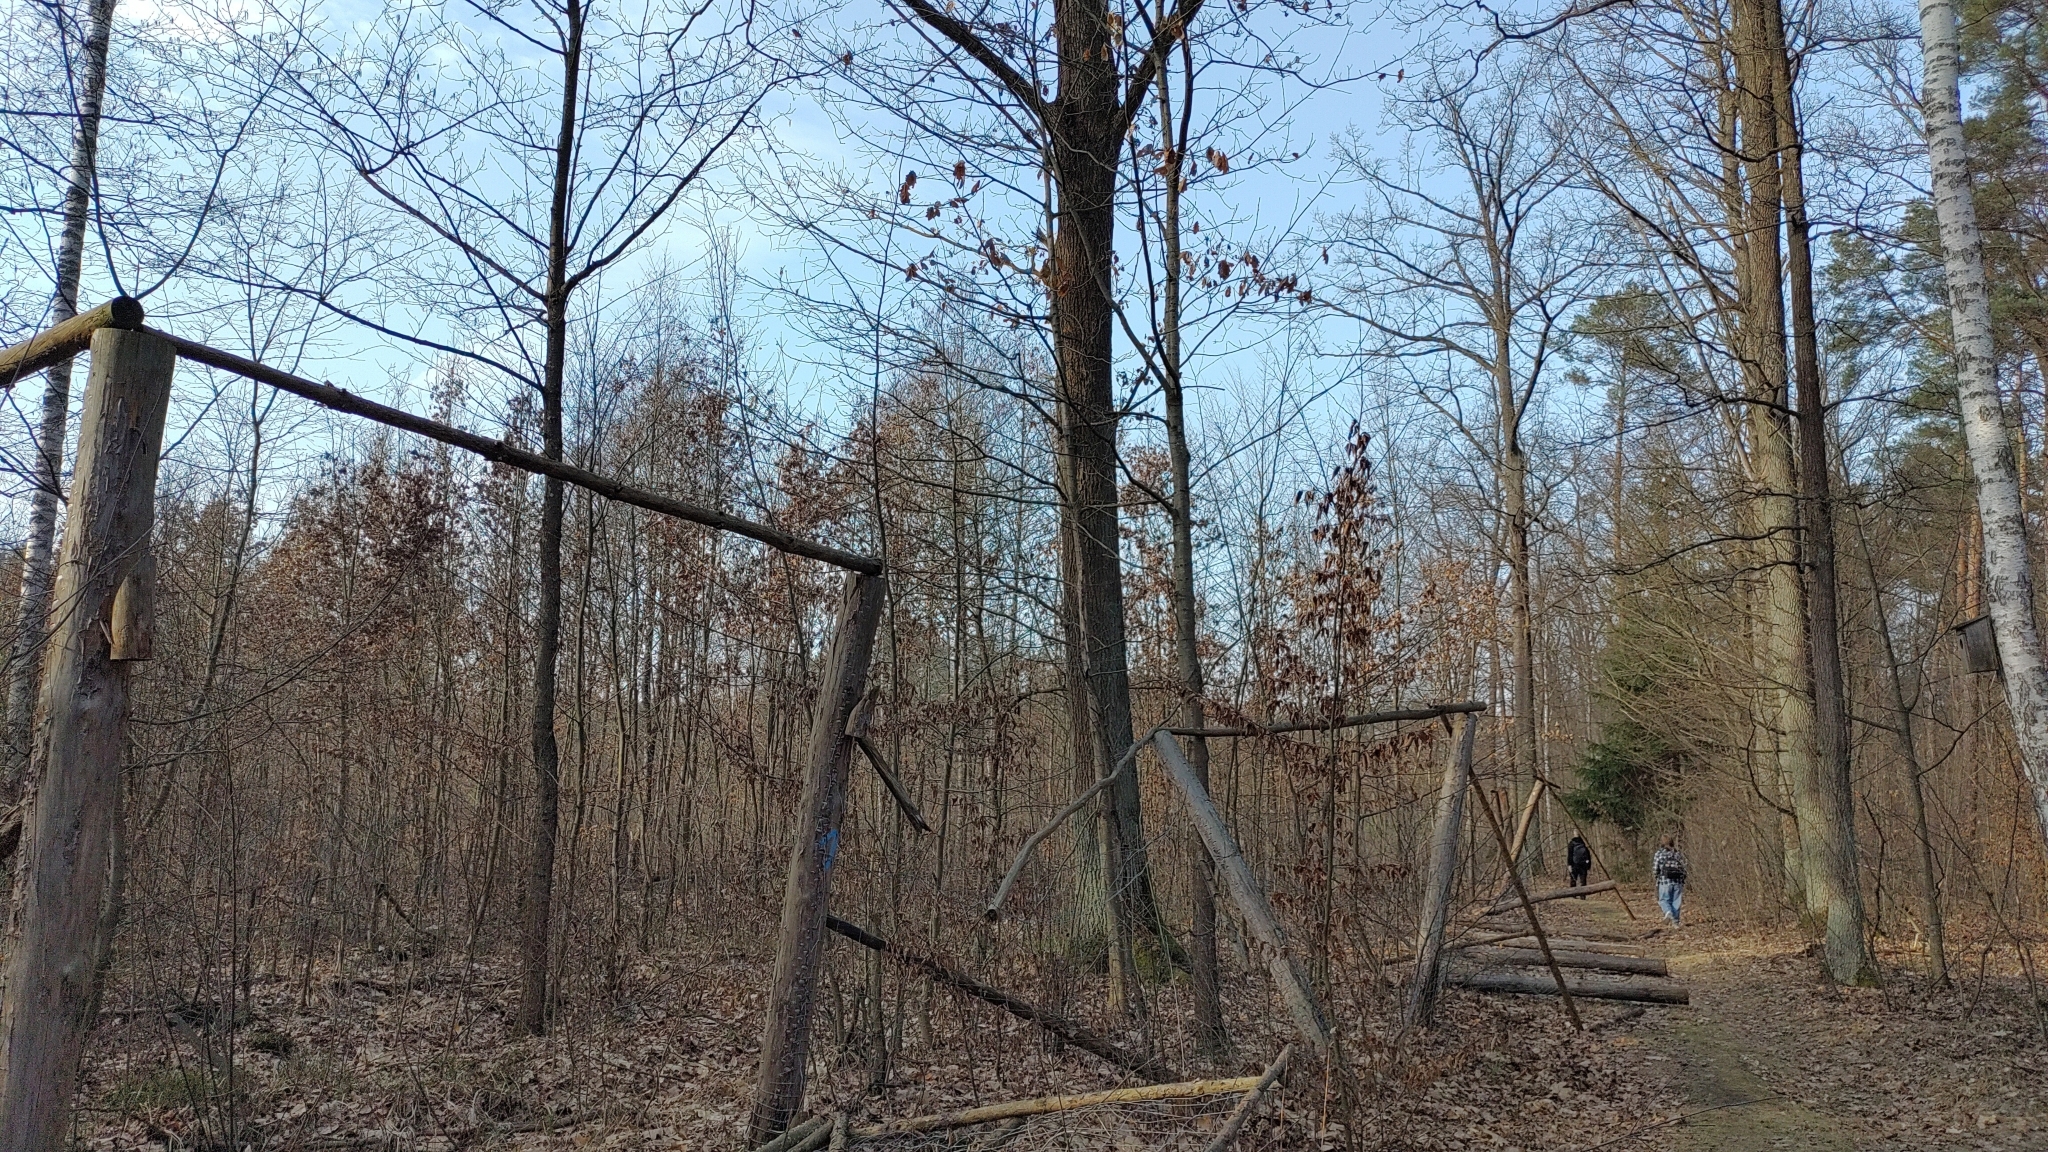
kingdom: Animalia
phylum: Chordata
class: Aves
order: Accipitriformes
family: Accipitridae
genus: Buteo
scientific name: Buteo buteo
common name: Common buzzard
